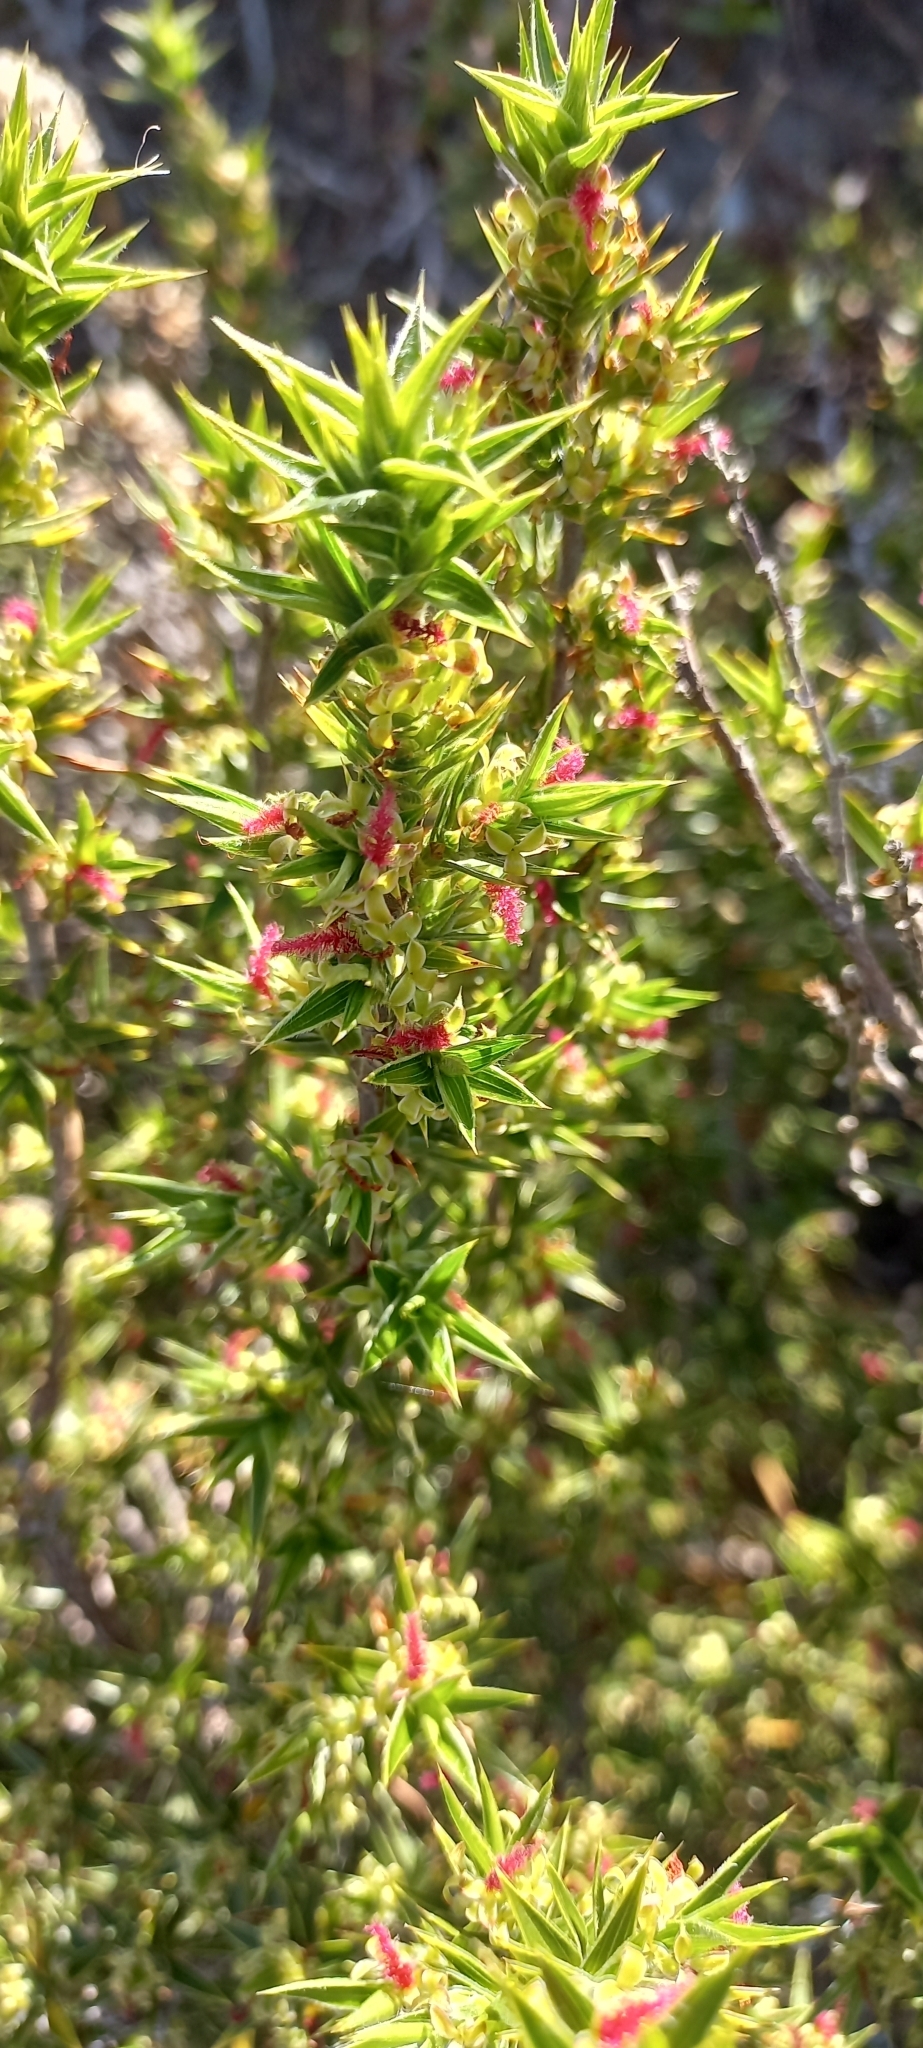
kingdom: Plantae
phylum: Tracheophyta
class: Magnoliopsida
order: Rosales
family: Rosaceae
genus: Cliffortia
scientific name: Cliffortia ruscifolia
